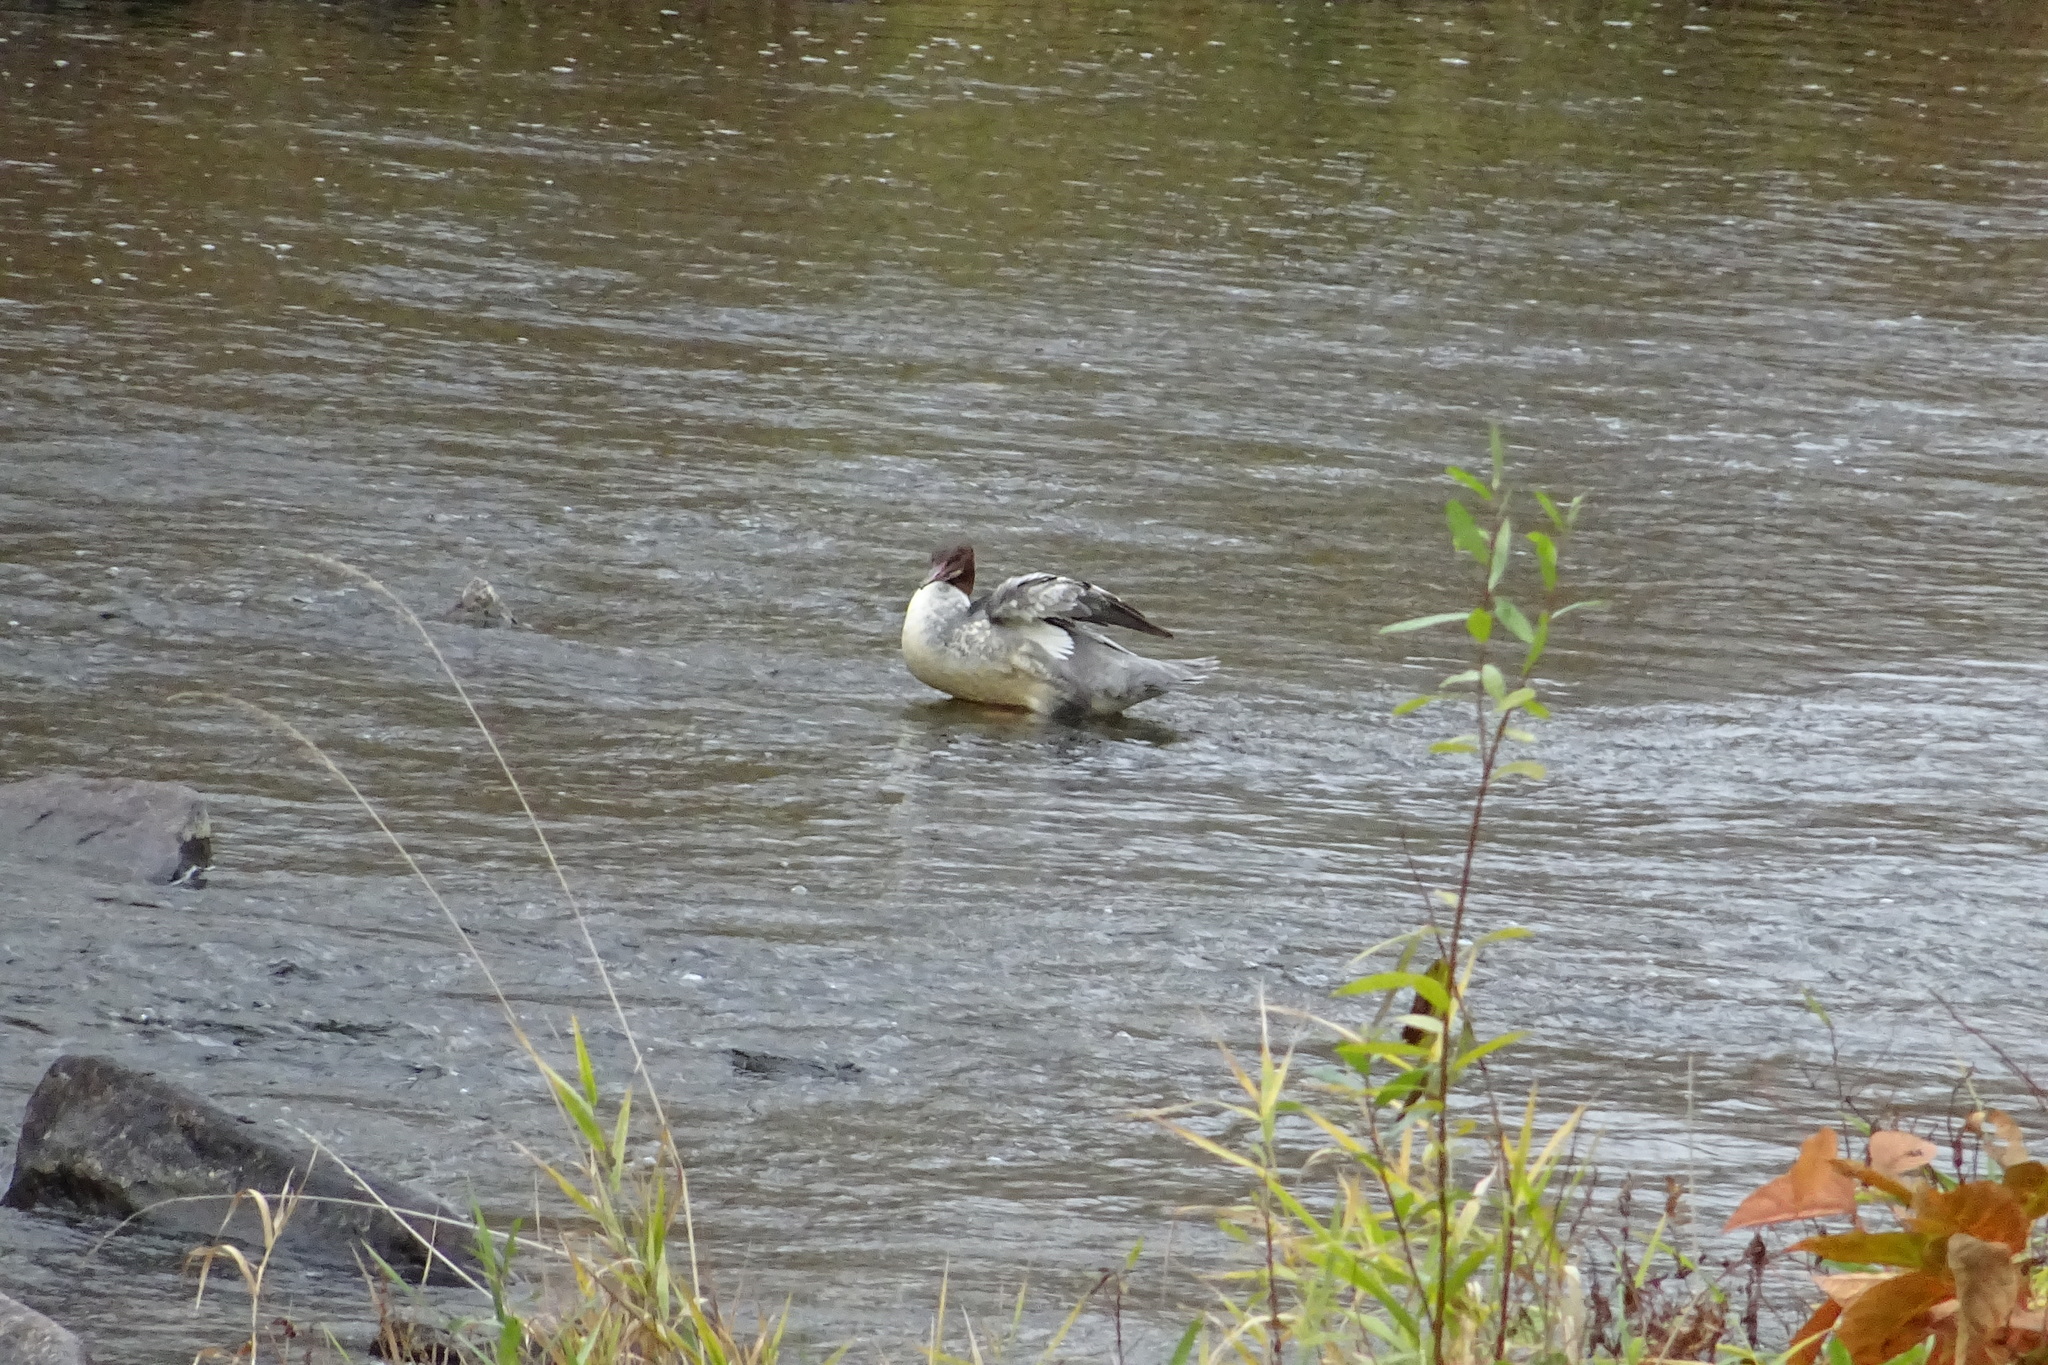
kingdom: Animalia
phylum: Chordata
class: Aves
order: Anseriformes
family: Anatidae
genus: Mergus
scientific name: Mergus merganser
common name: Common merganser
